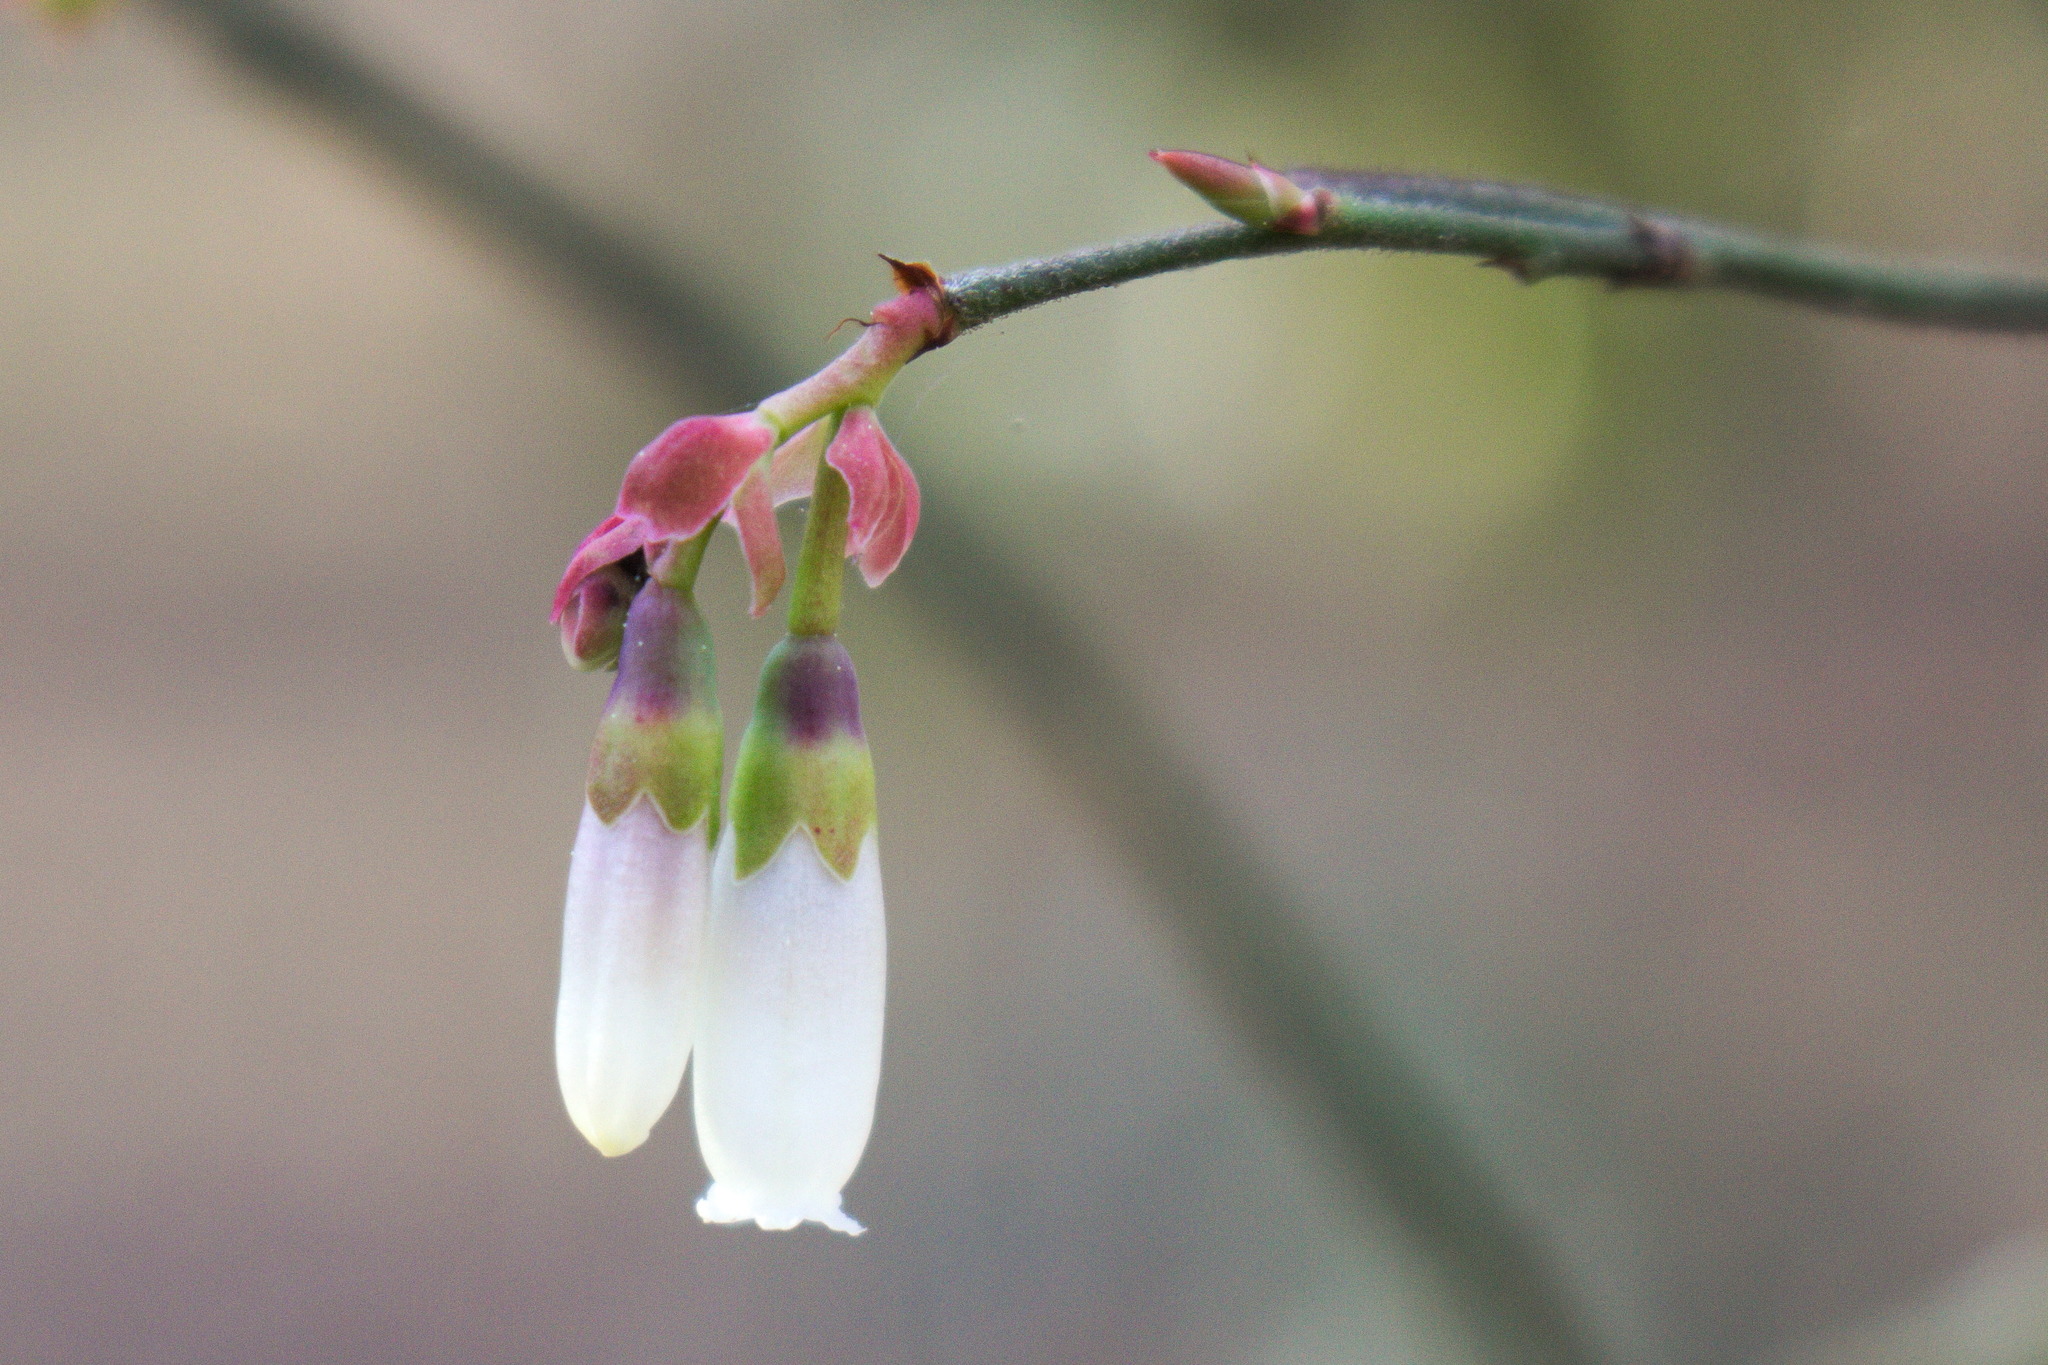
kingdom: Plantae
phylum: Tracheophyta
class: Magnoliopsida
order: Ericales
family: Ericaceae
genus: Vaccinium
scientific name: Vaccinium corymbosum
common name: Blueberry
